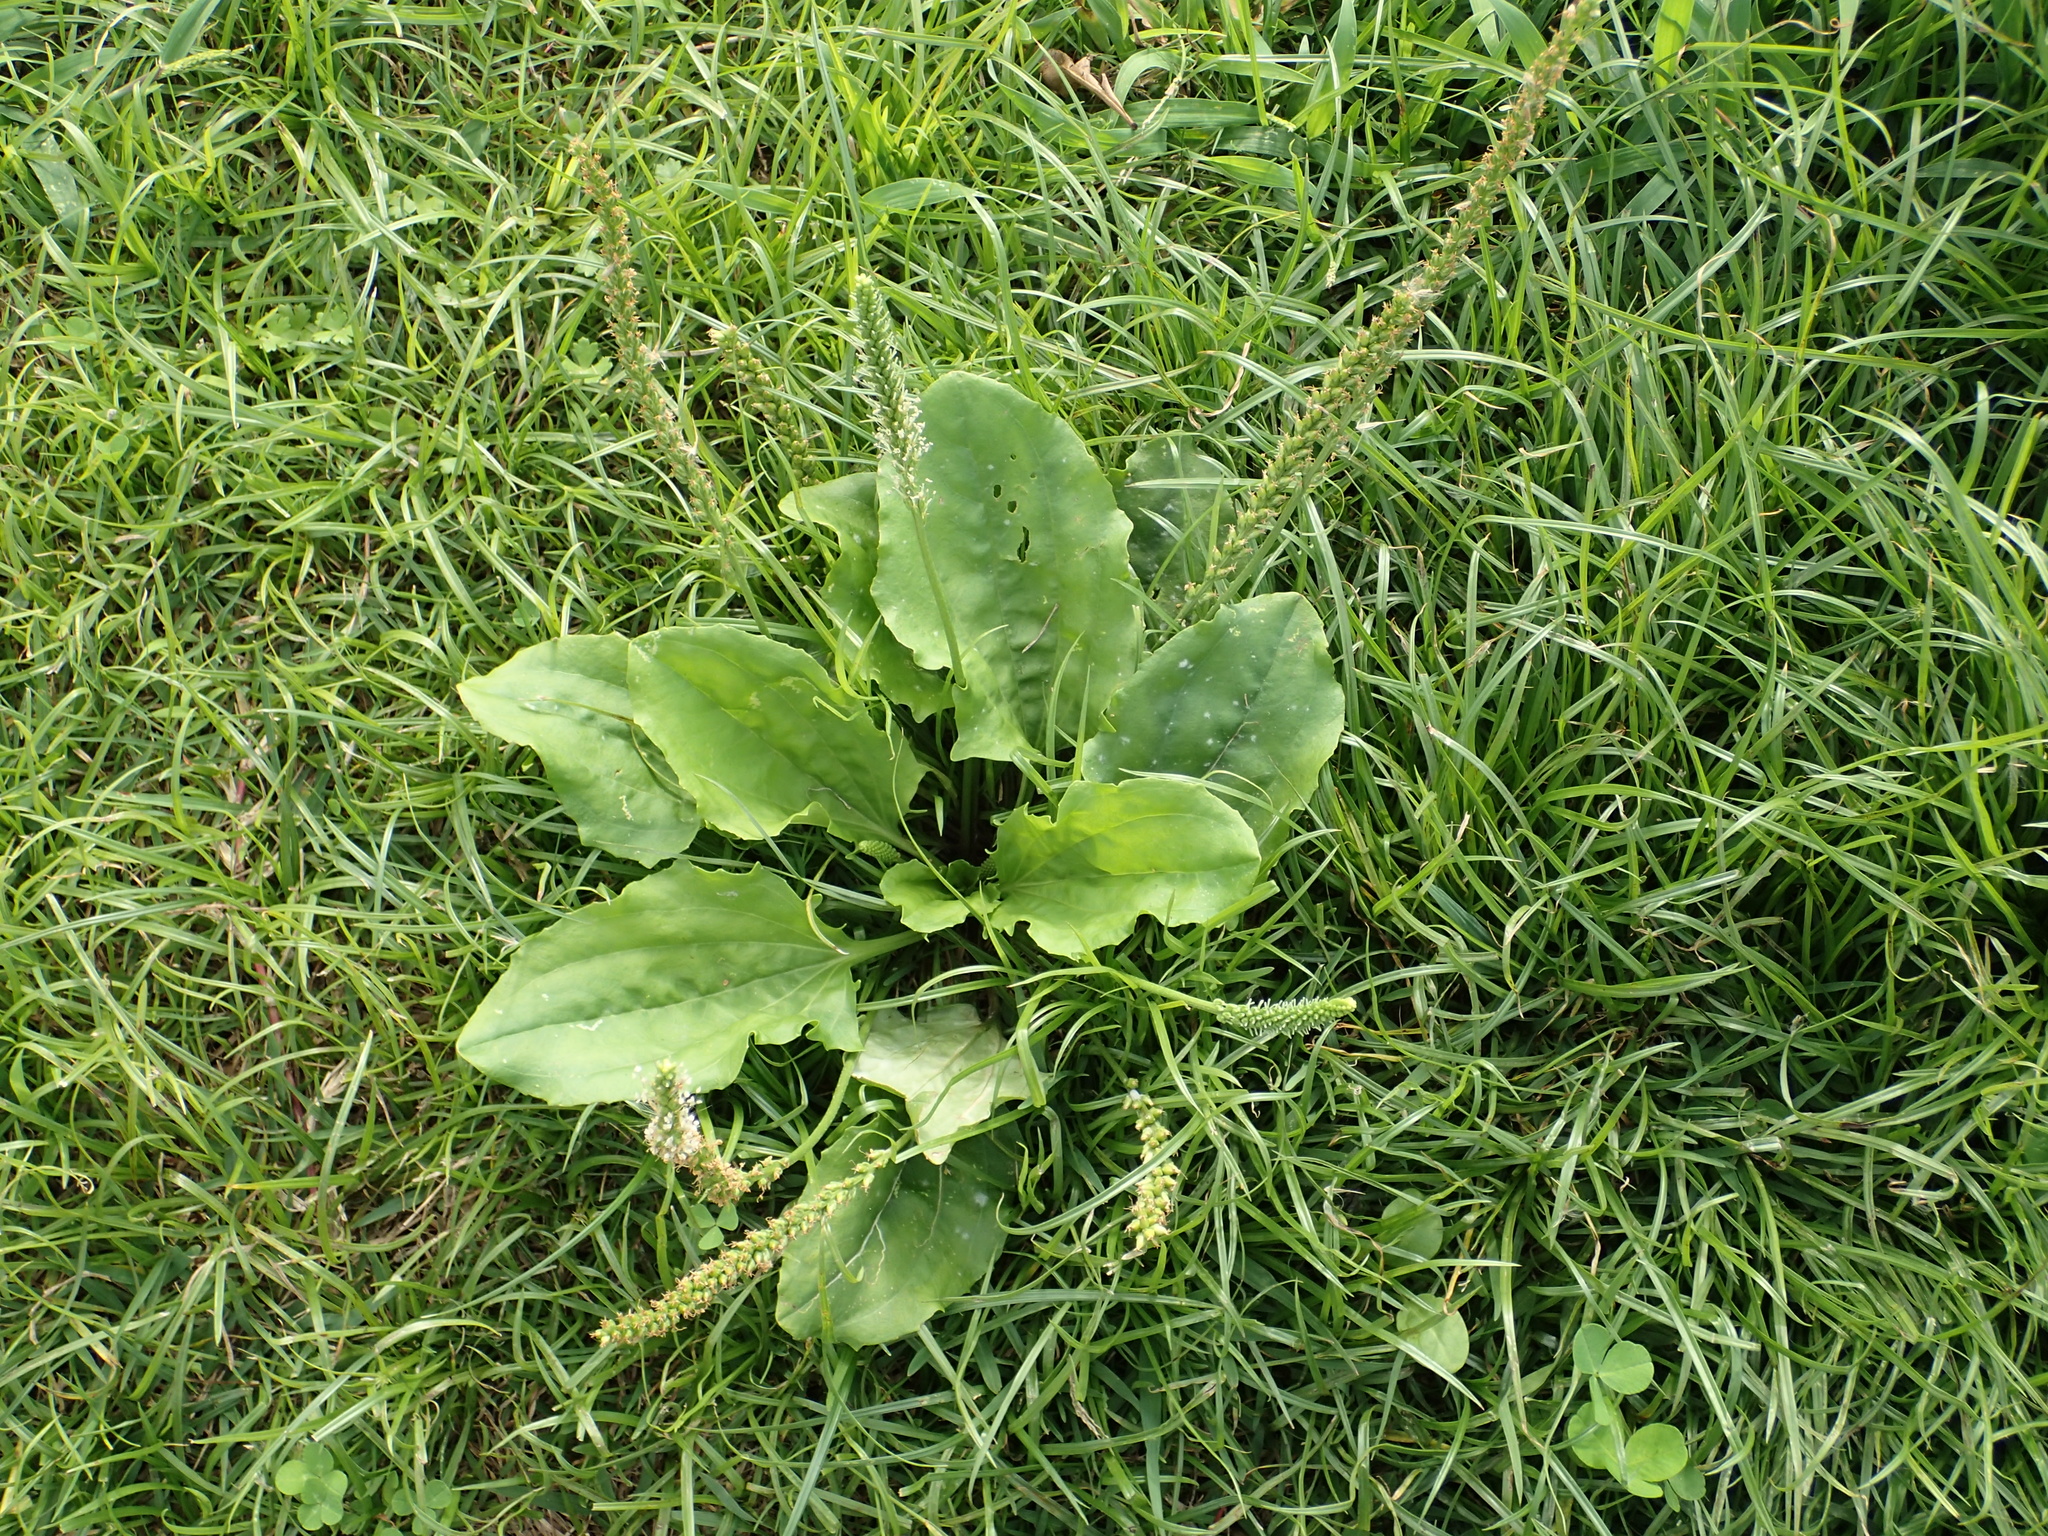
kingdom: Plantae
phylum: Tracheophyta
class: Magnoliopsida
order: Lamiales
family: Plantaginaceae
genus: Plantago
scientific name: Plantago asiatica
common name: Psyllium
